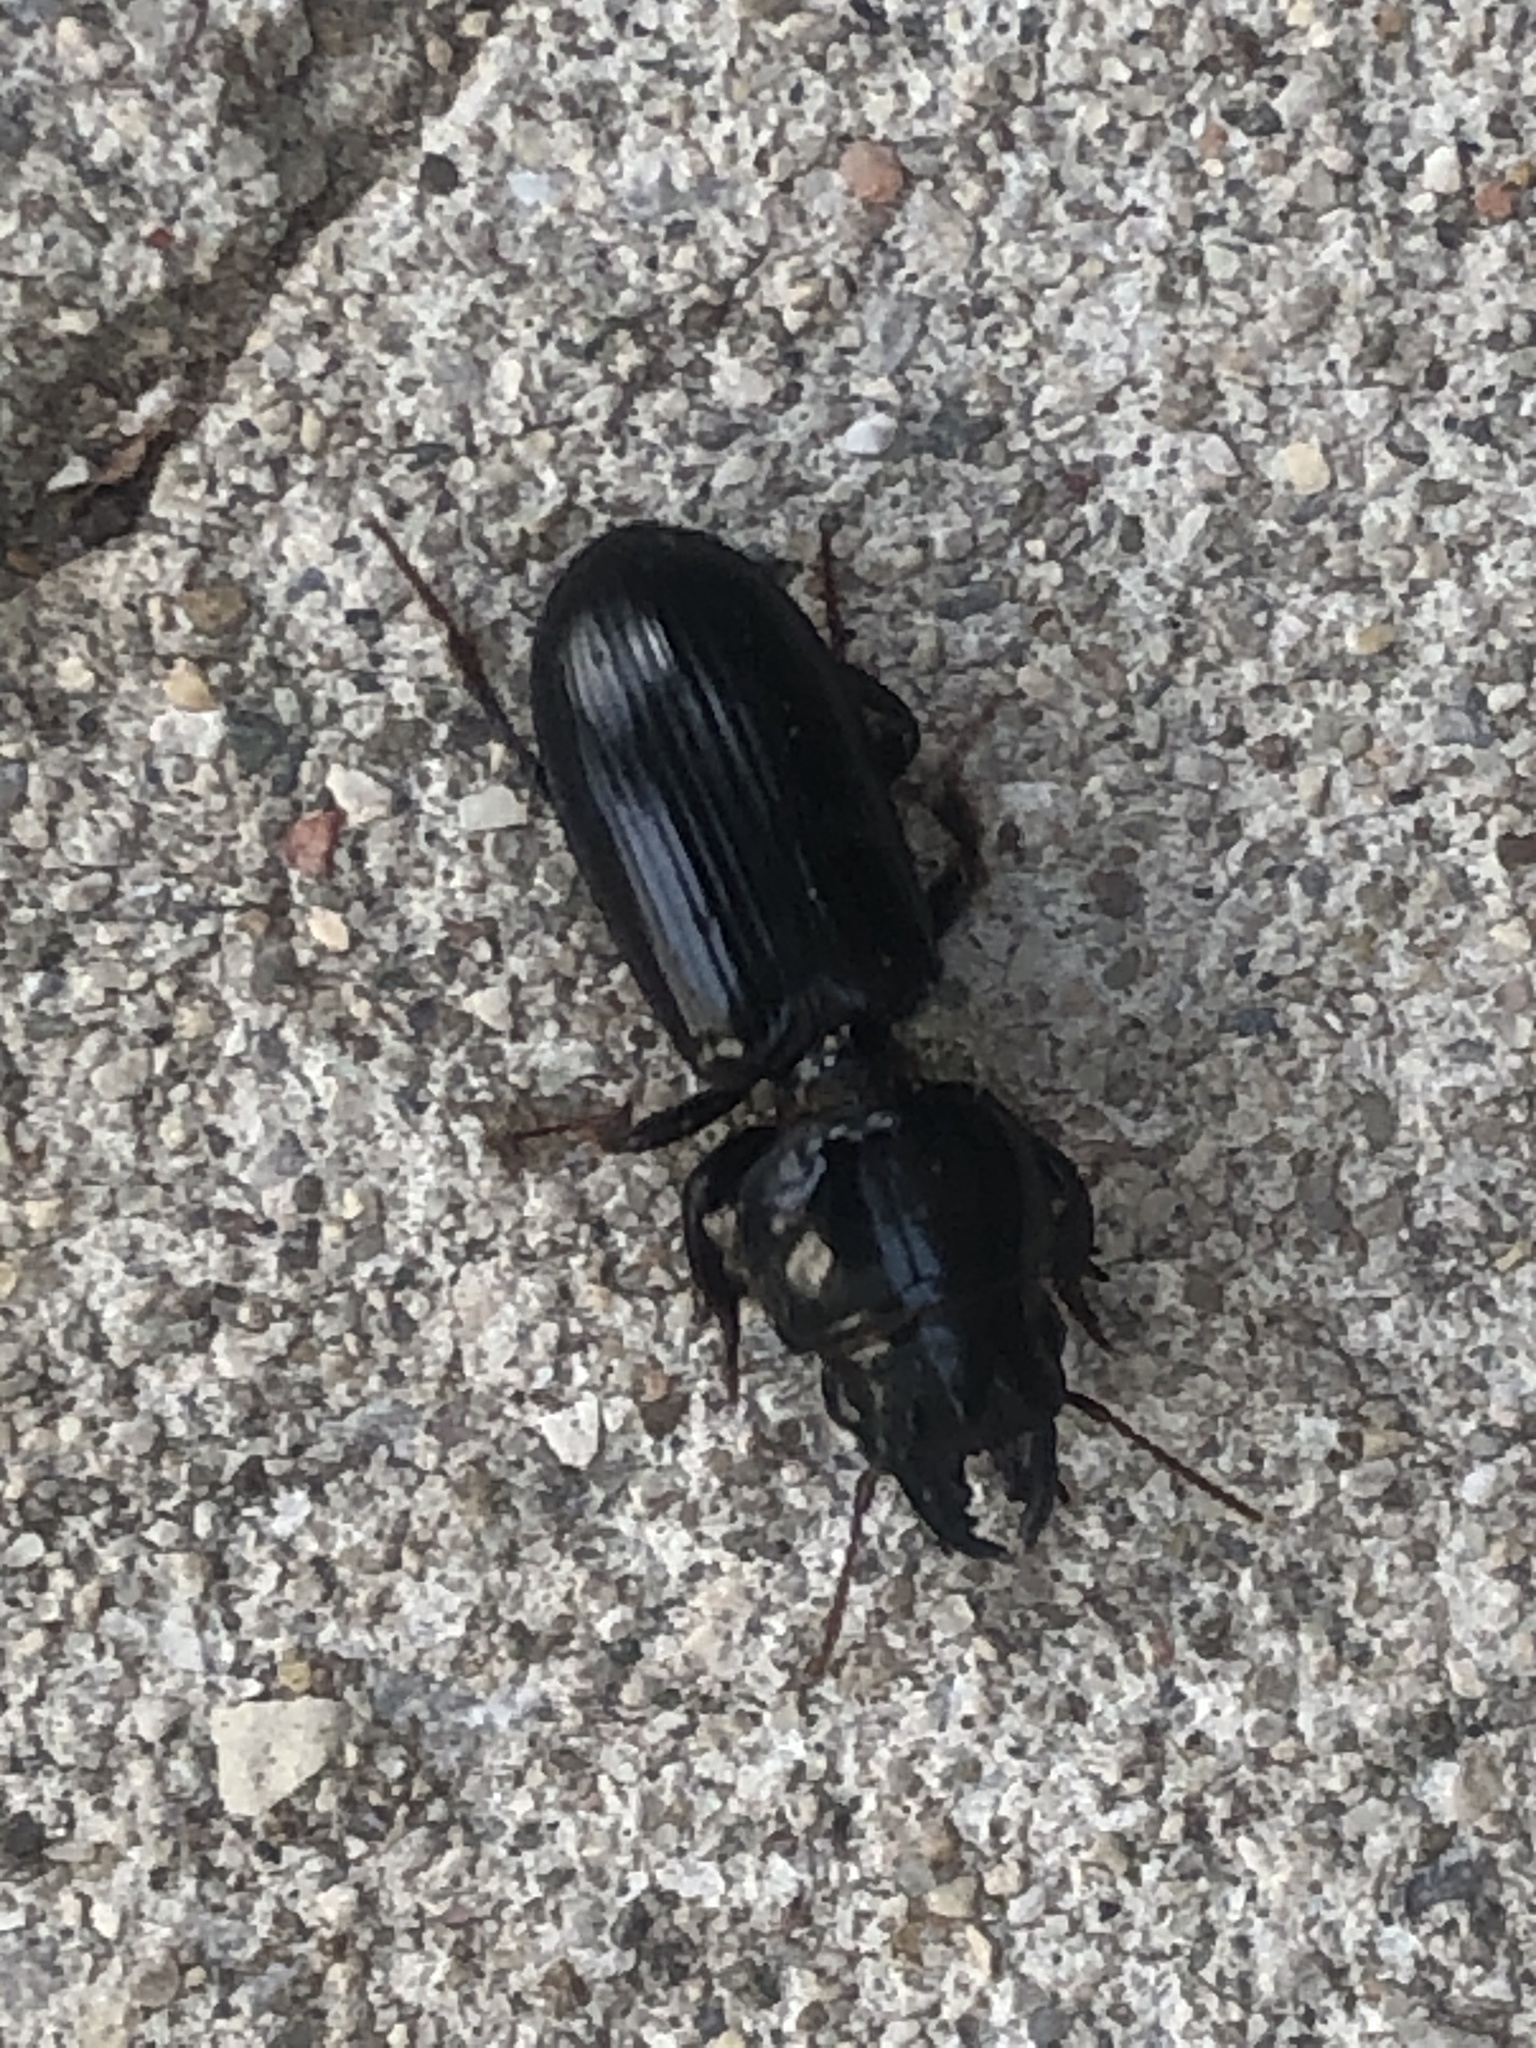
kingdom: Animalia
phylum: Arthropoda
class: Insecta
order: Coleoptera
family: Carabidae
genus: Scarites
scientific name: Scarites subterraneus
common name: Big-headed ground beetle
